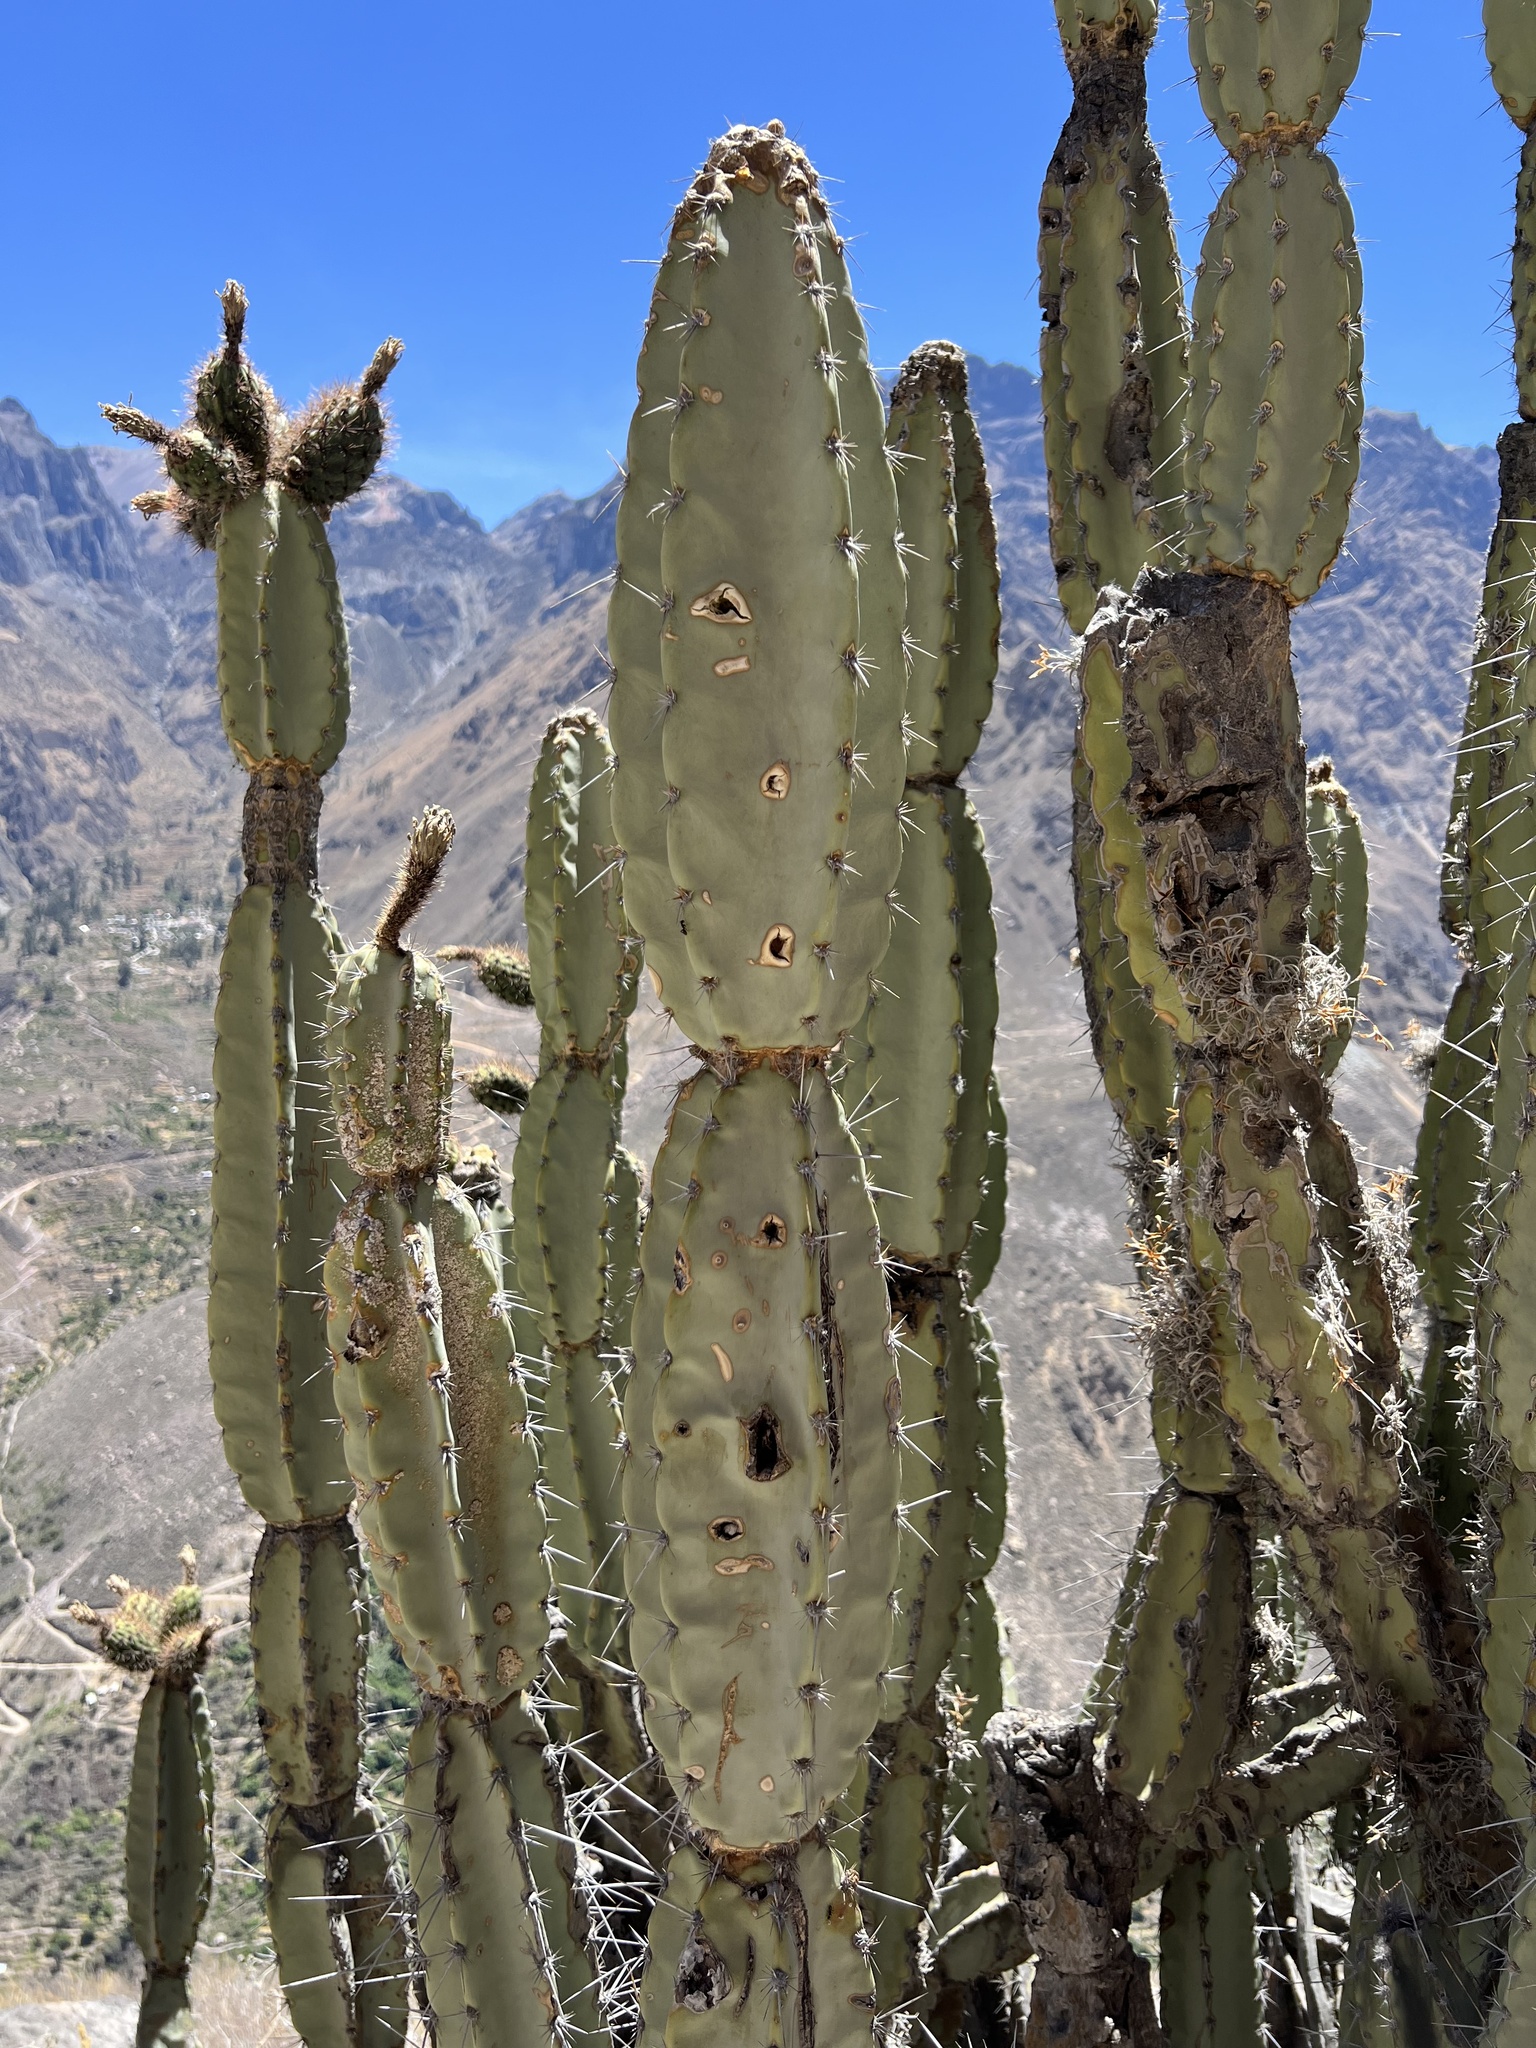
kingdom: Plantae
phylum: Tracheophyta
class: Magnoliopsida
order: Caryophyllales
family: Cactaceae
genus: Armatocereus
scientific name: Armatocereus matucanensis
